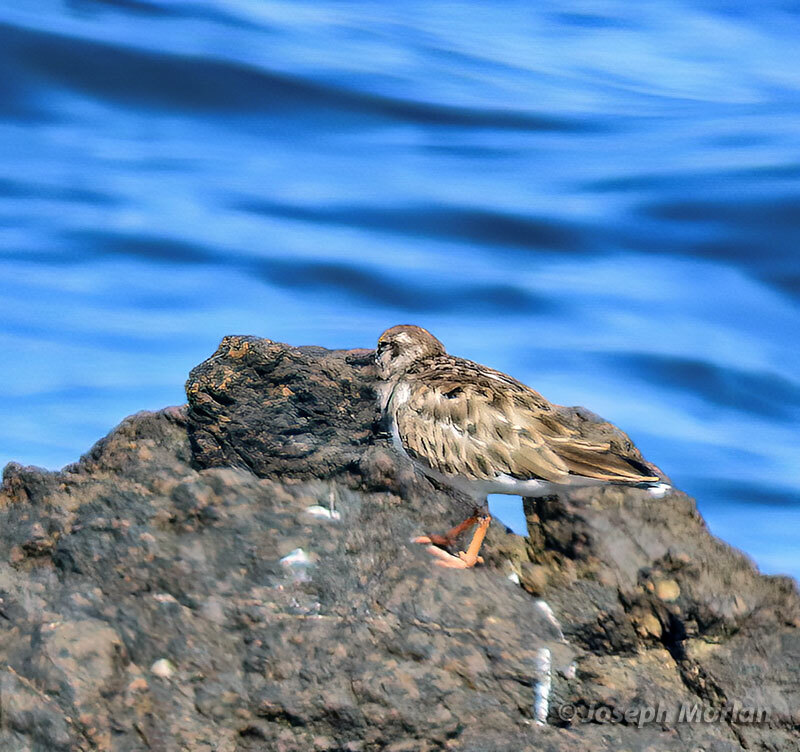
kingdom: Animalia
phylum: Chordata
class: Aves
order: Charadriiformes
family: Scolopacidae
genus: Arenaria
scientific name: Arenaria interpres
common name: Ruddy turnstone
